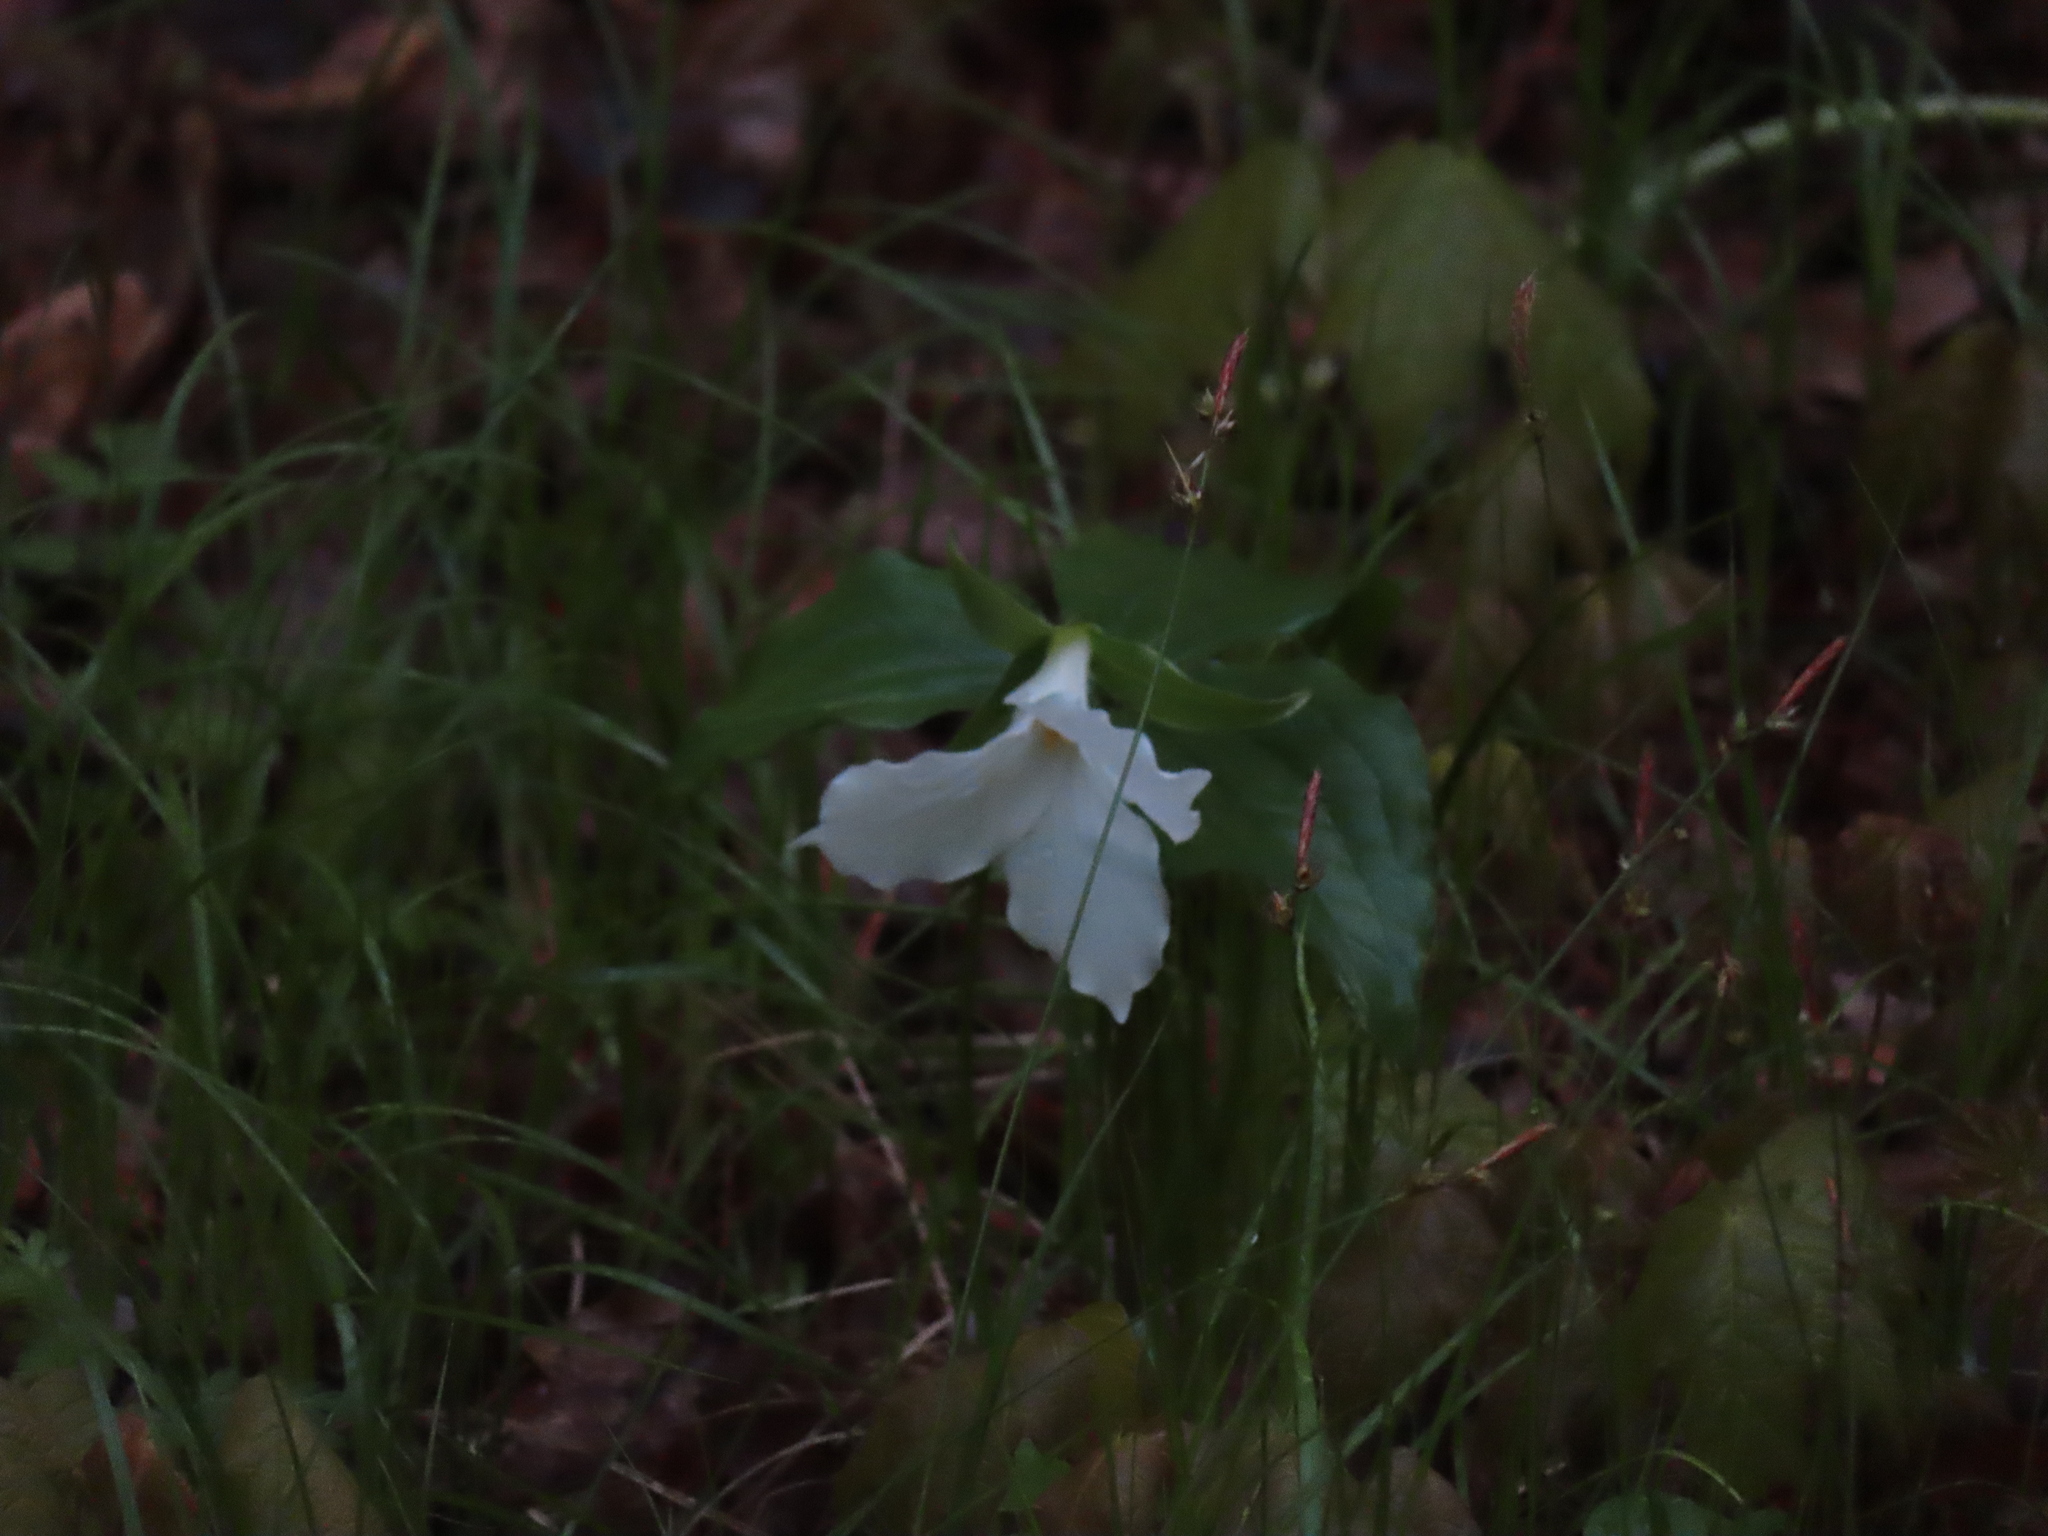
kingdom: Plantae
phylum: Tracheophyta
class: Liliopsida
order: Liliales
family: Melanthiaceae
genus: Trillium
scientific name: Trillium grandiflorum
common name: Great white trillium
